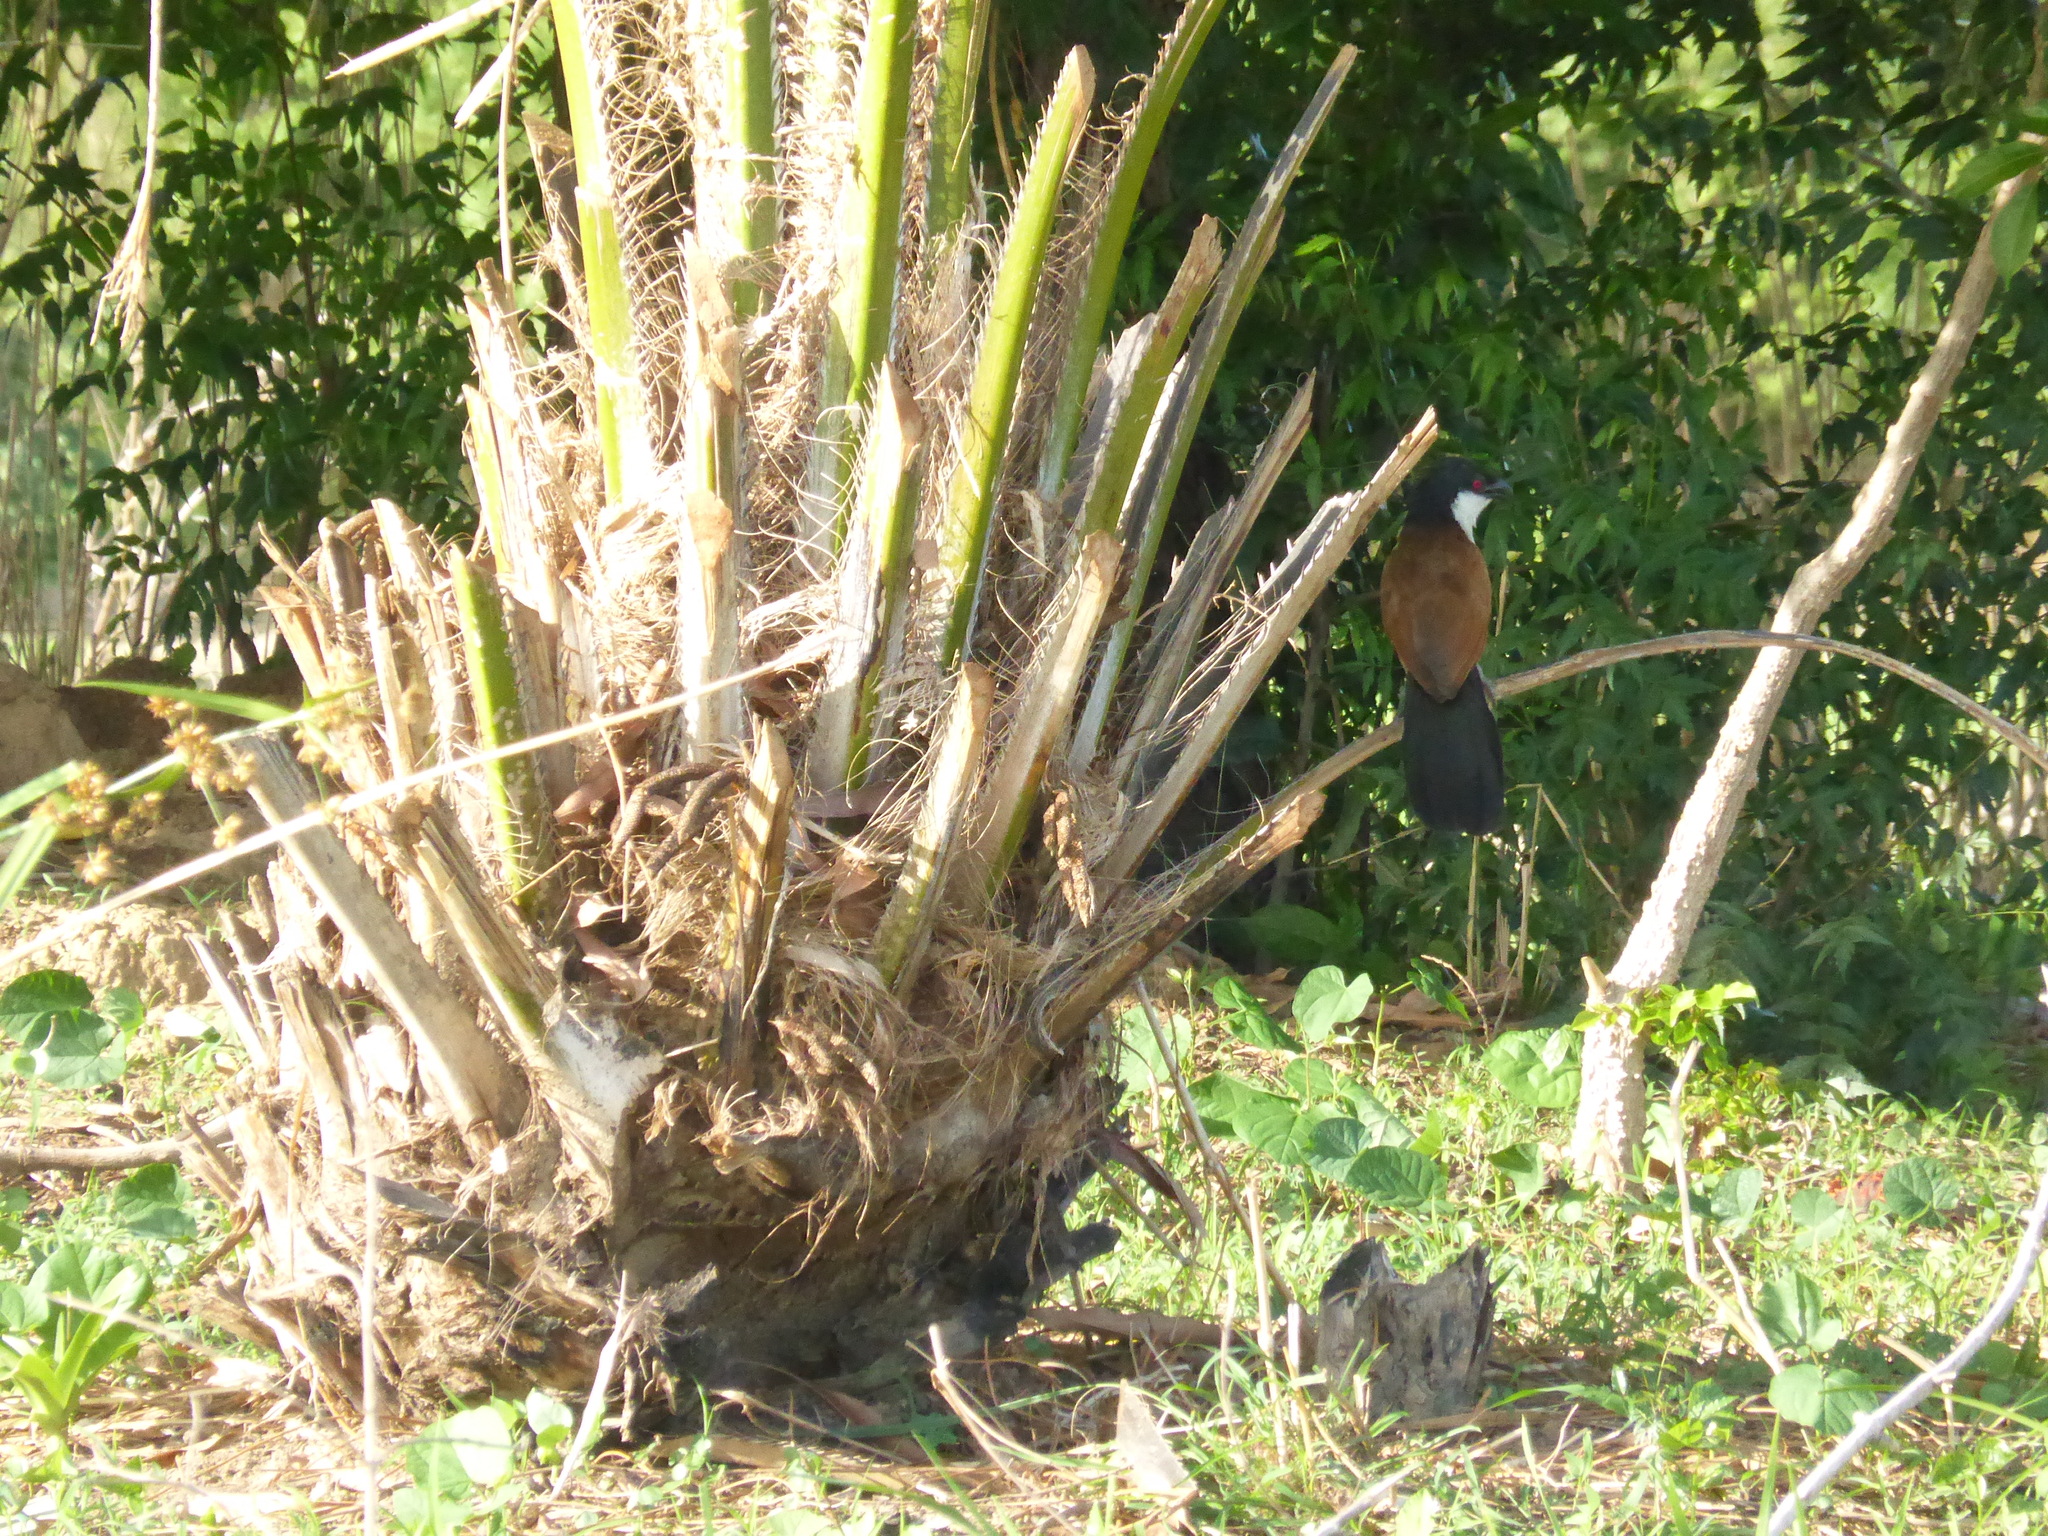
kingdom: Animalia
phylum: Chordata
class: Aves
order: Cuculiformes
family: Cuculidae
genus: Centropus
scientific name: Centropus senegalensis
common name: Senegal coucal
